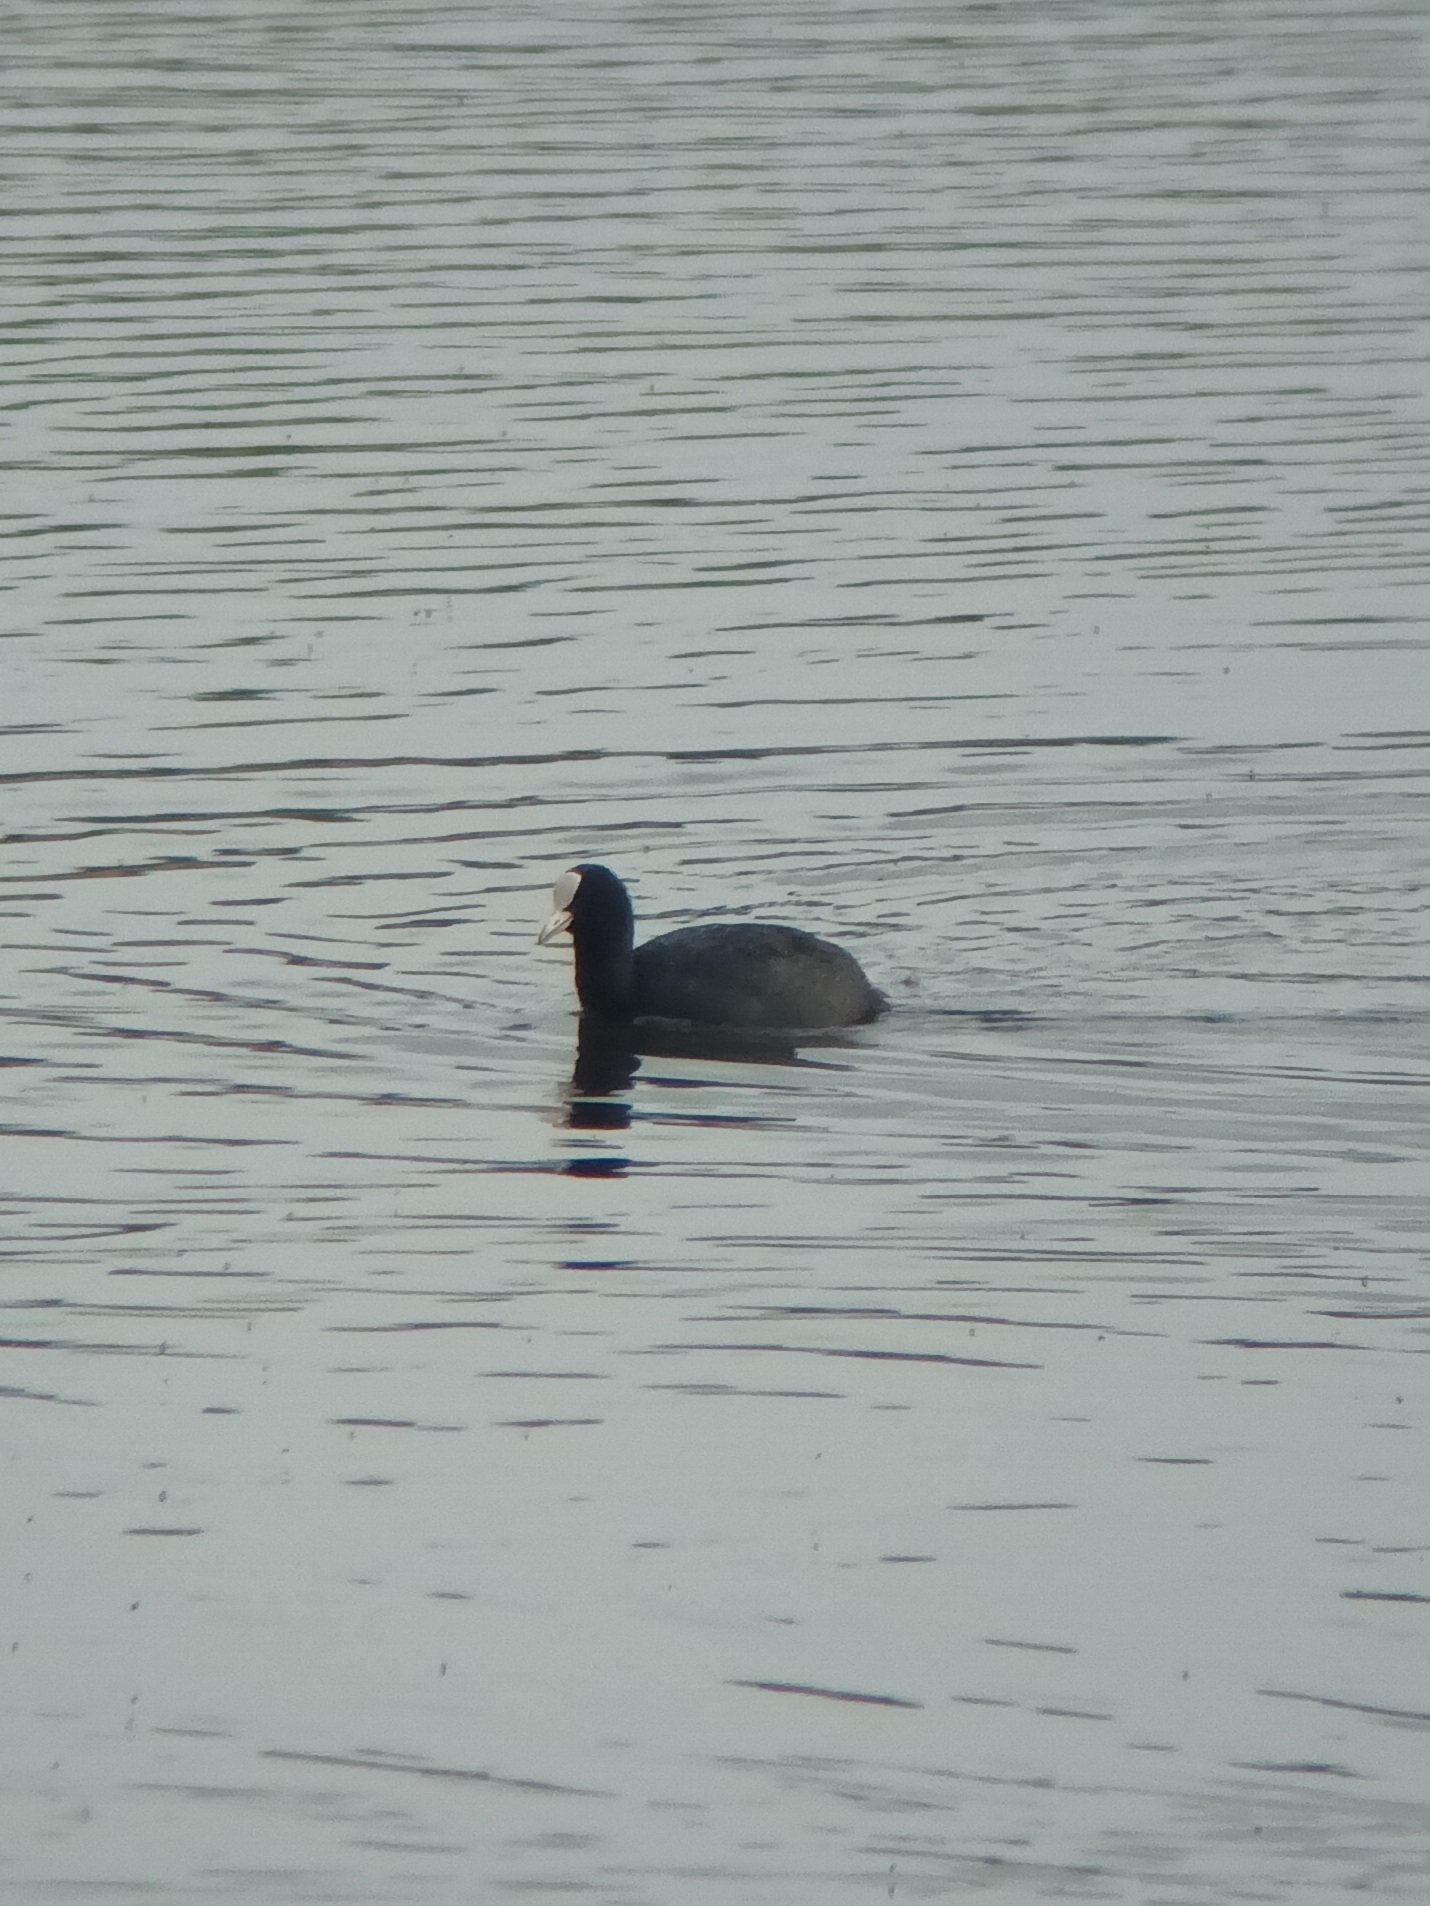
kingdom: Animalia
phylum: Chordata
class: Aves
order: Gruiformes
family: Rallidae
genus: Fulica
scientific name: Fulica atra
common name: Eurasian coot
